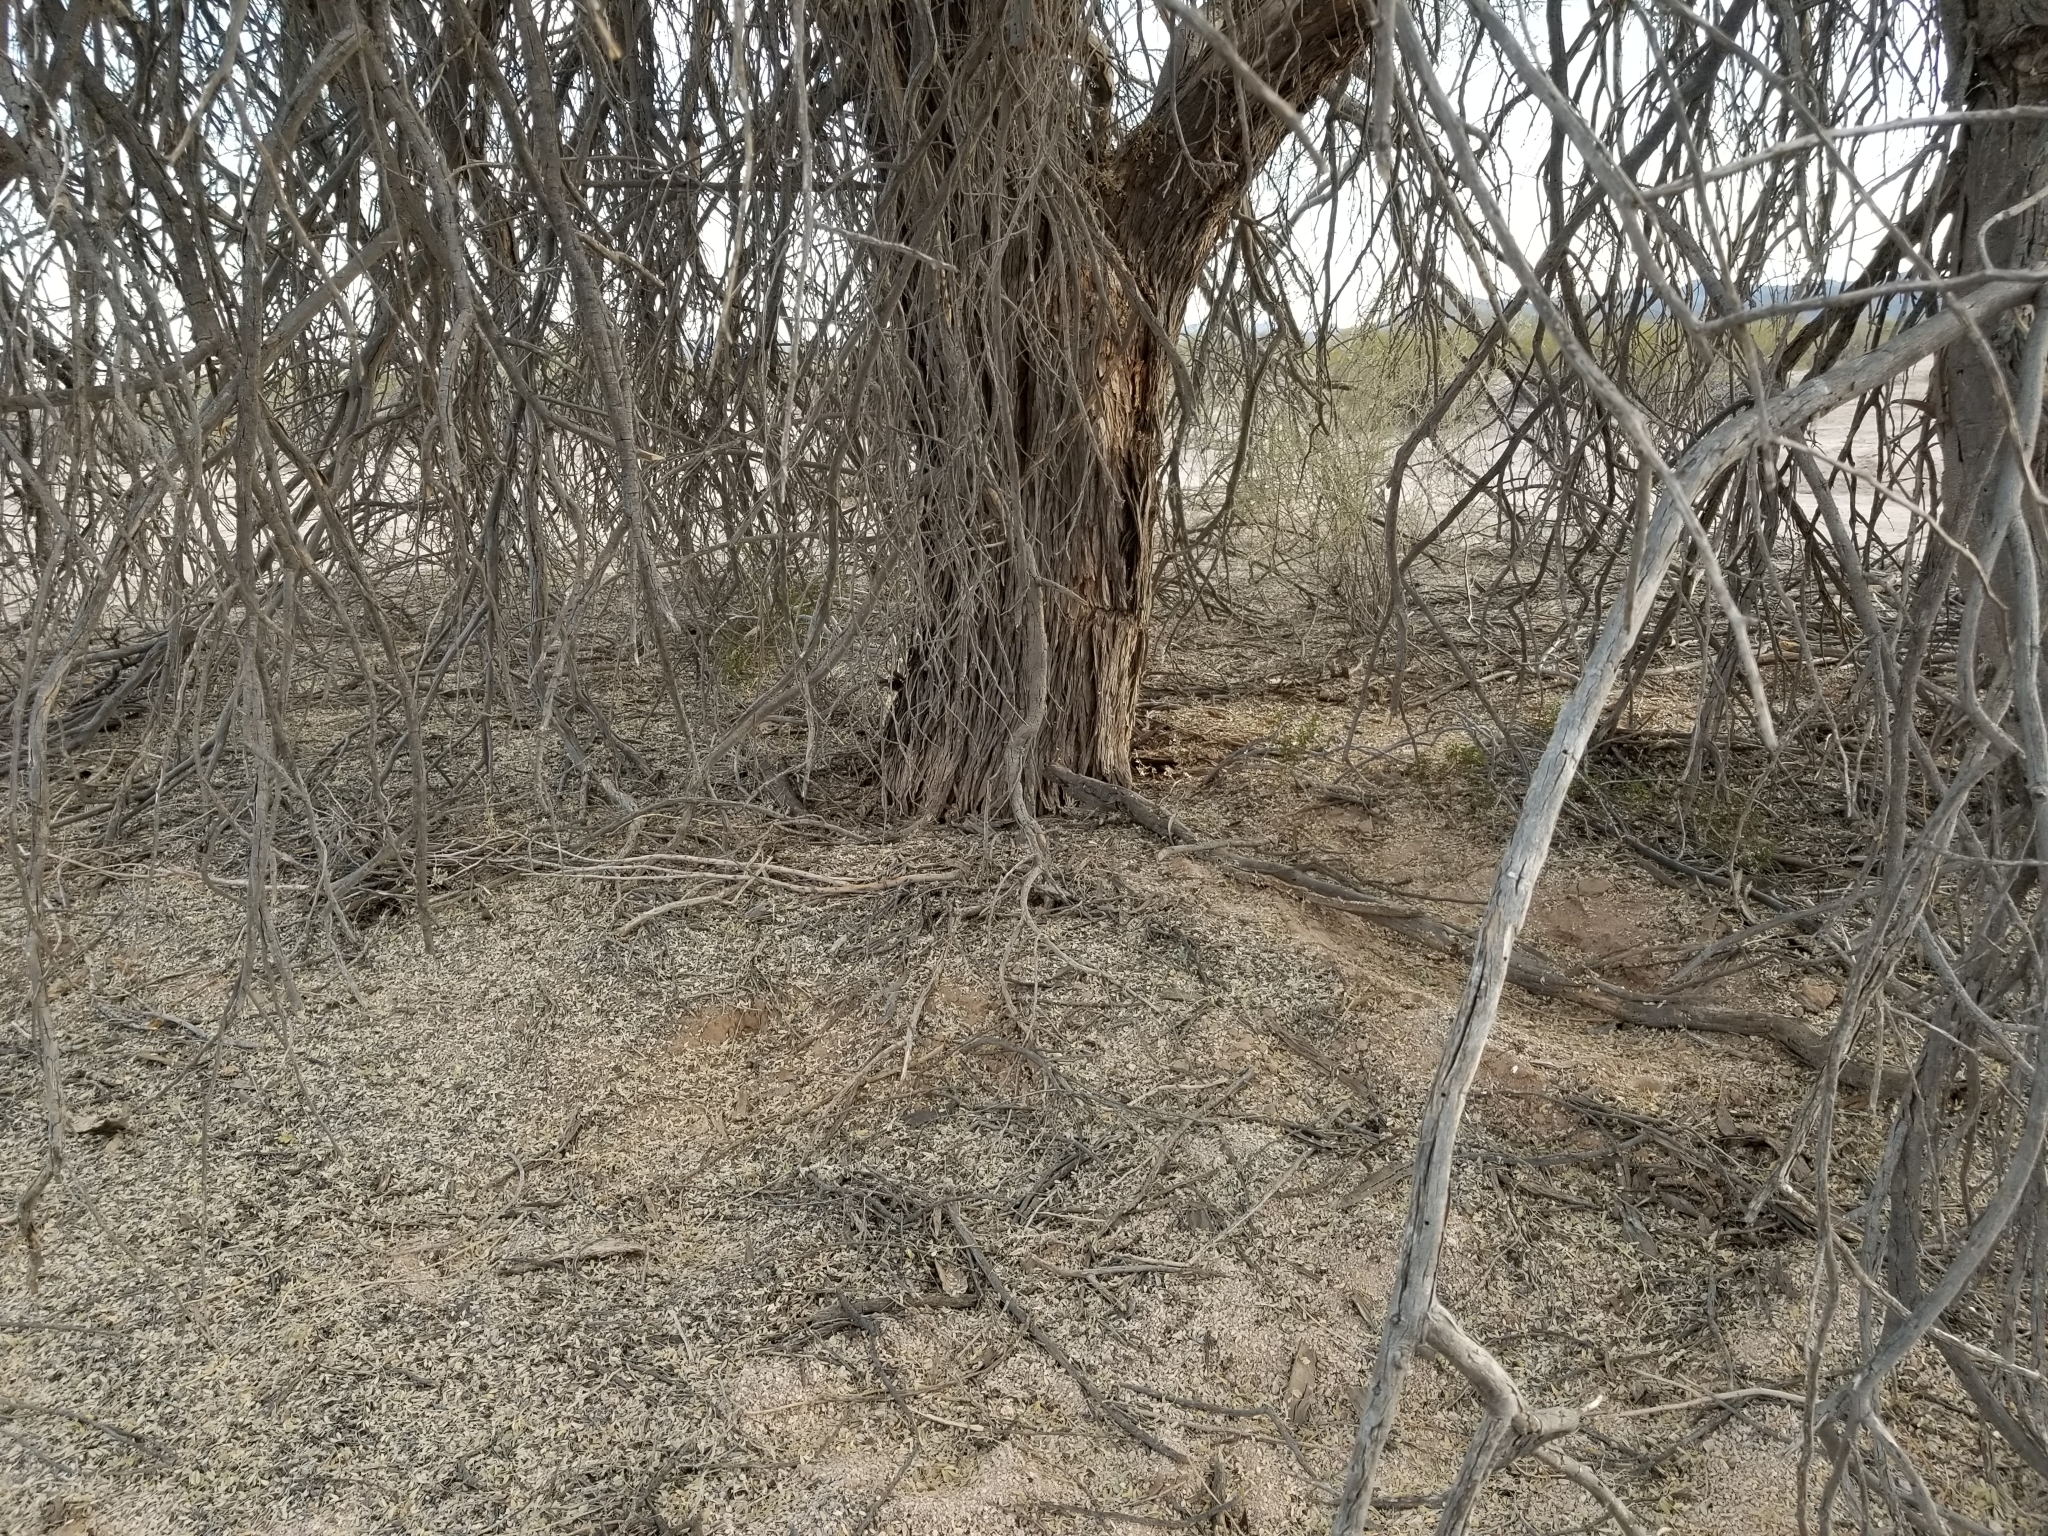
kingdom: Plantae
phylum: Tracheophyta
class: Magnoliopsida
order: Fabales
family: Fabaceae
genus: Olneya
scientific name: Olneya tesota
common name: Desert ironwood
